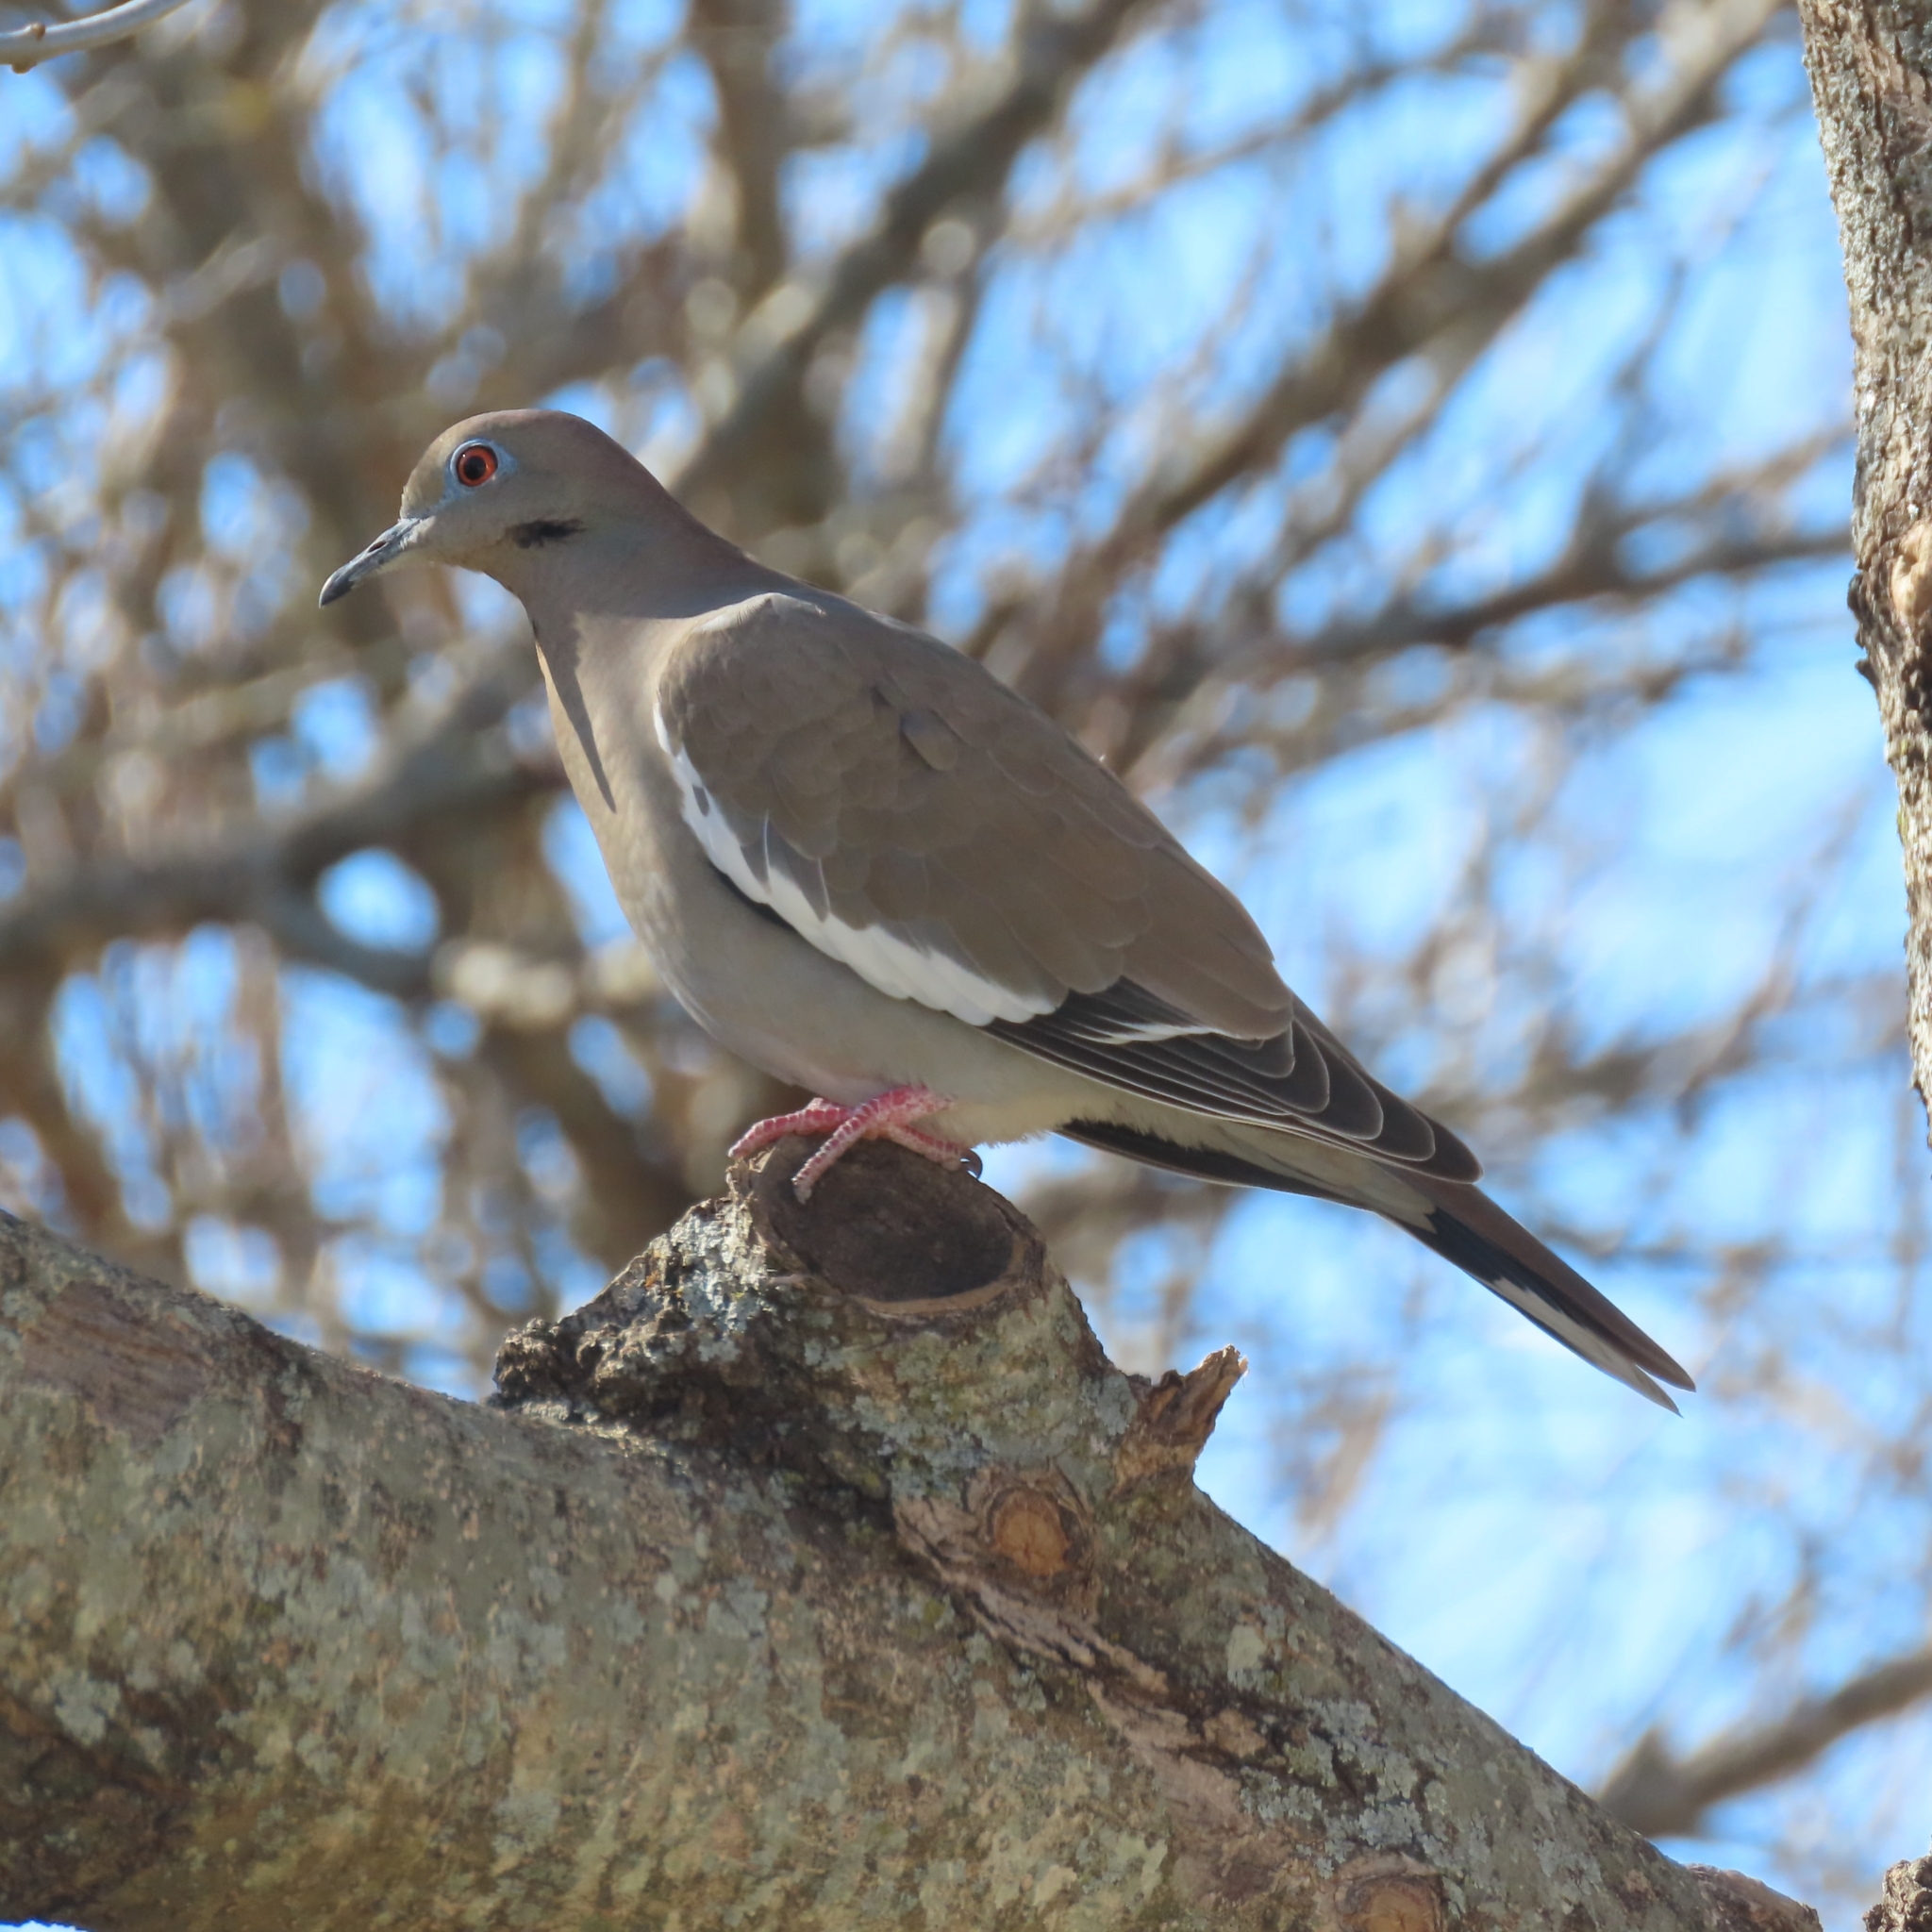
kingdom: Animalia
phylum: Chordata
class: Aves
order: Columbiformes
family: Columbidae
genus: Zenaida
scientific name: Zenaida asiatica
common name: White-winged dove
